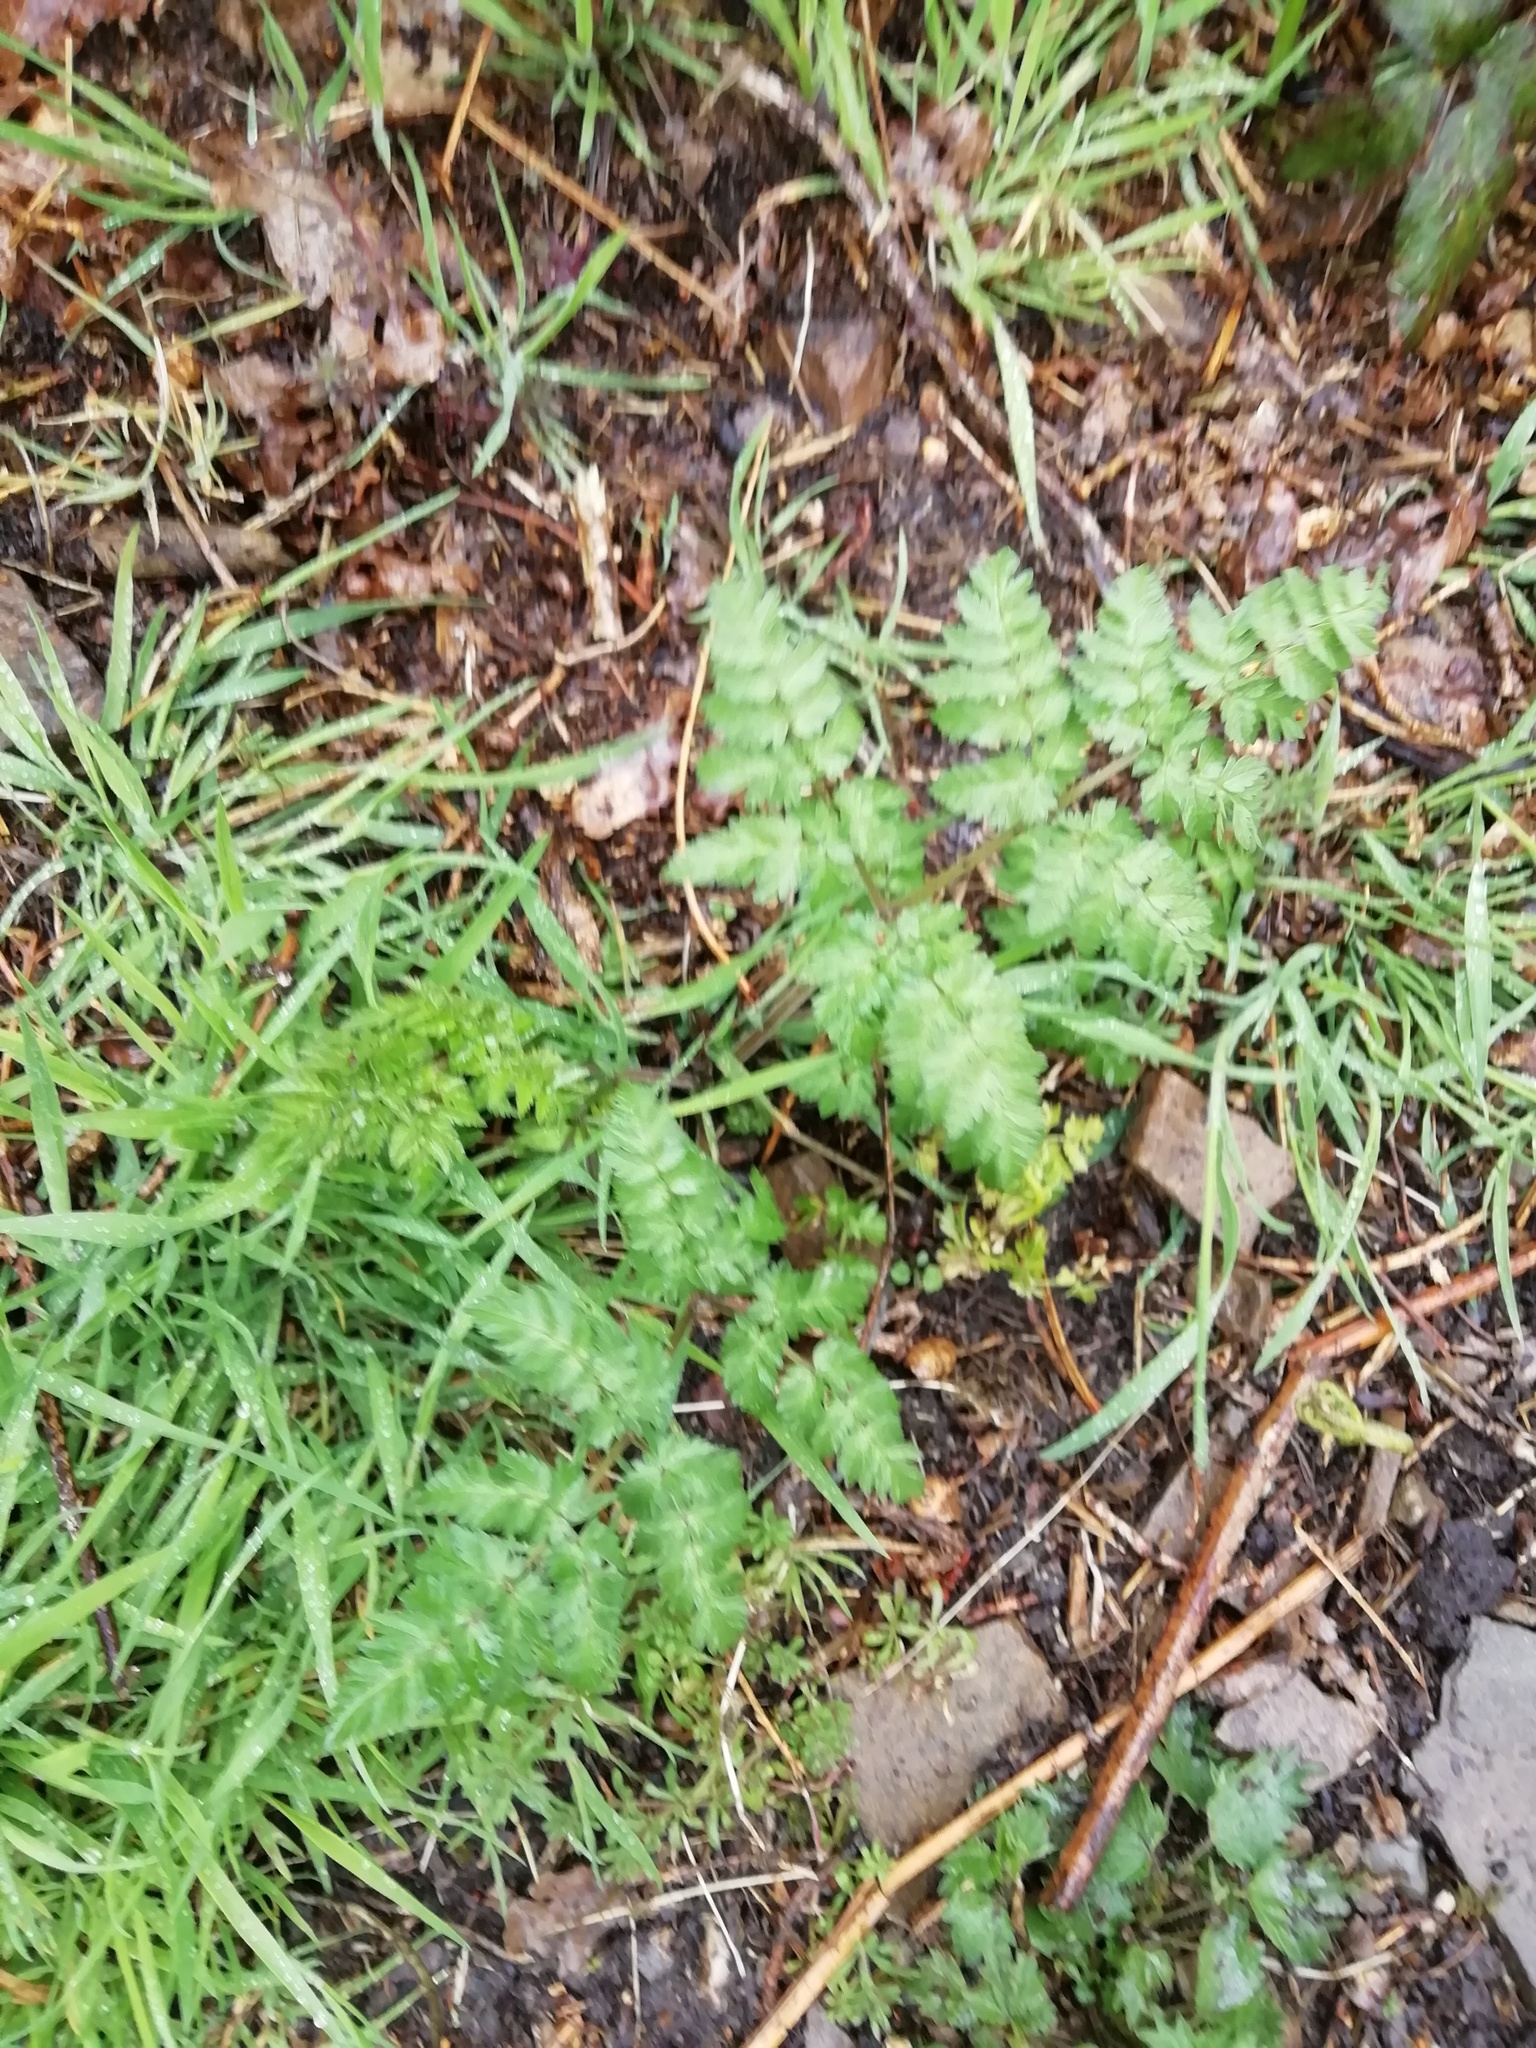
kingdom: Plantae
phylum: Tracheophyta
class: Magnoliopsida
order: Apiales
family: Apiaceae
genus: Anthriscus
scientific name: Anthriscus sylvestris
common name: Cow parsley
